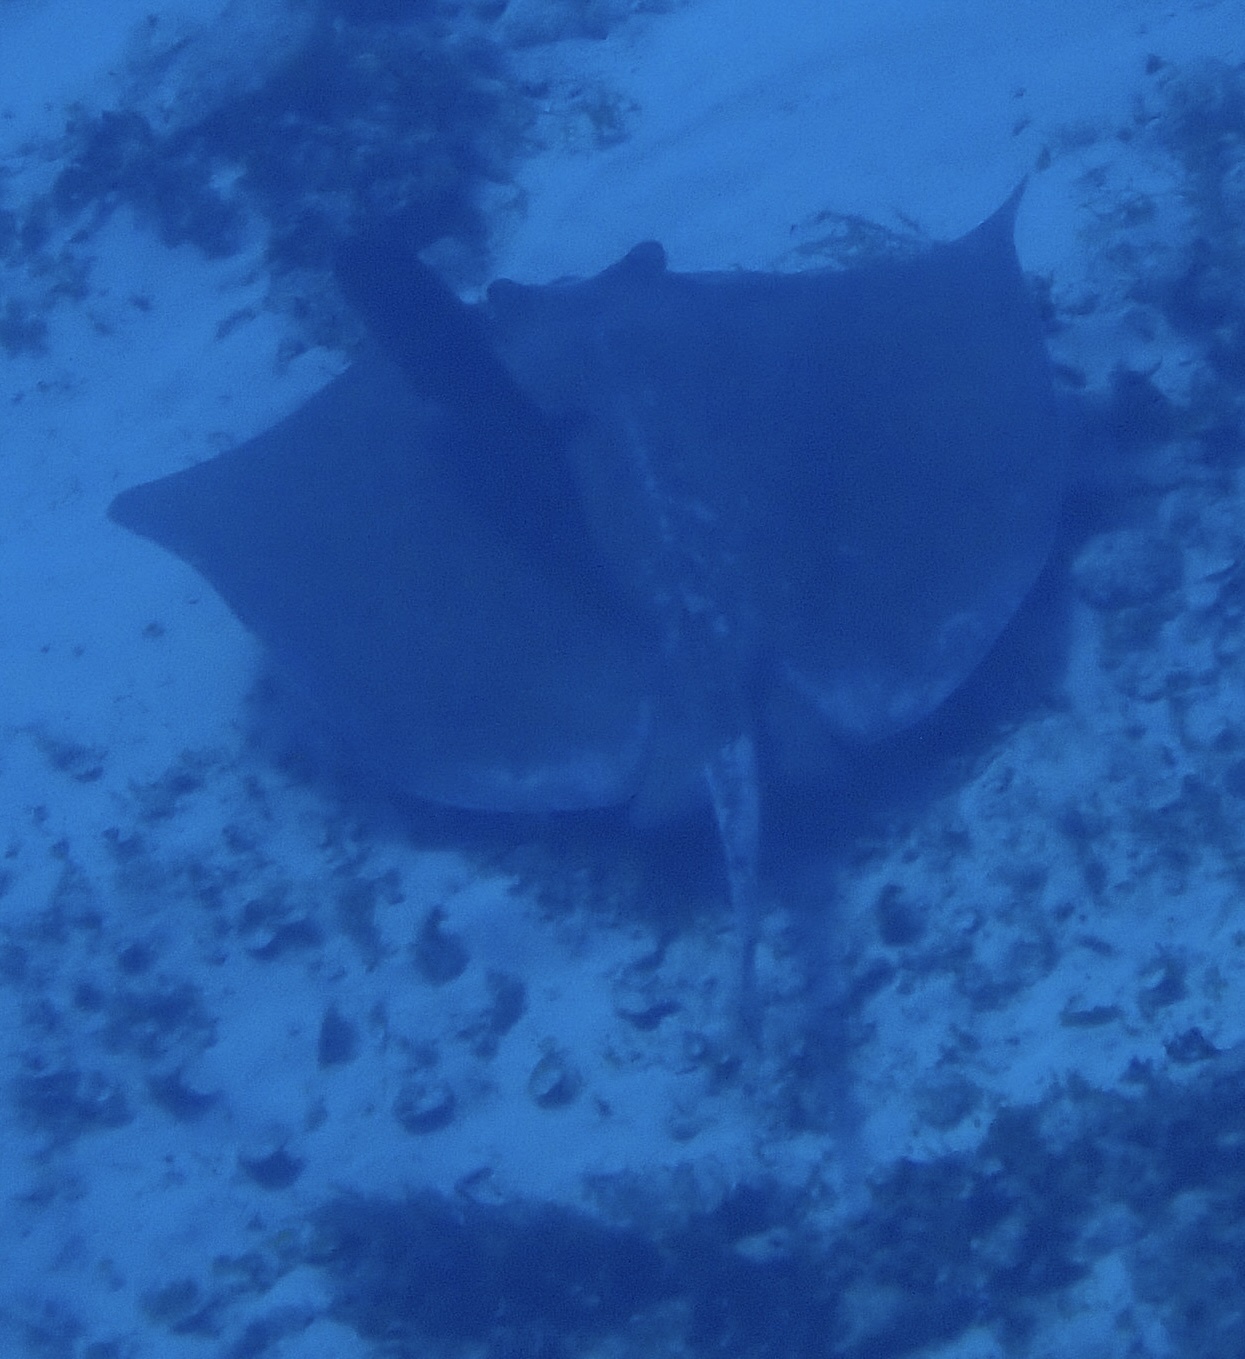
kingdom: Animalia
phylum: Chordata
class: Elasmobranchii
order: Myliobatiformes
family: Dasyatidae
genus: Hypanus
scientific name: Hypanus americanus
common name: Southern stingray
